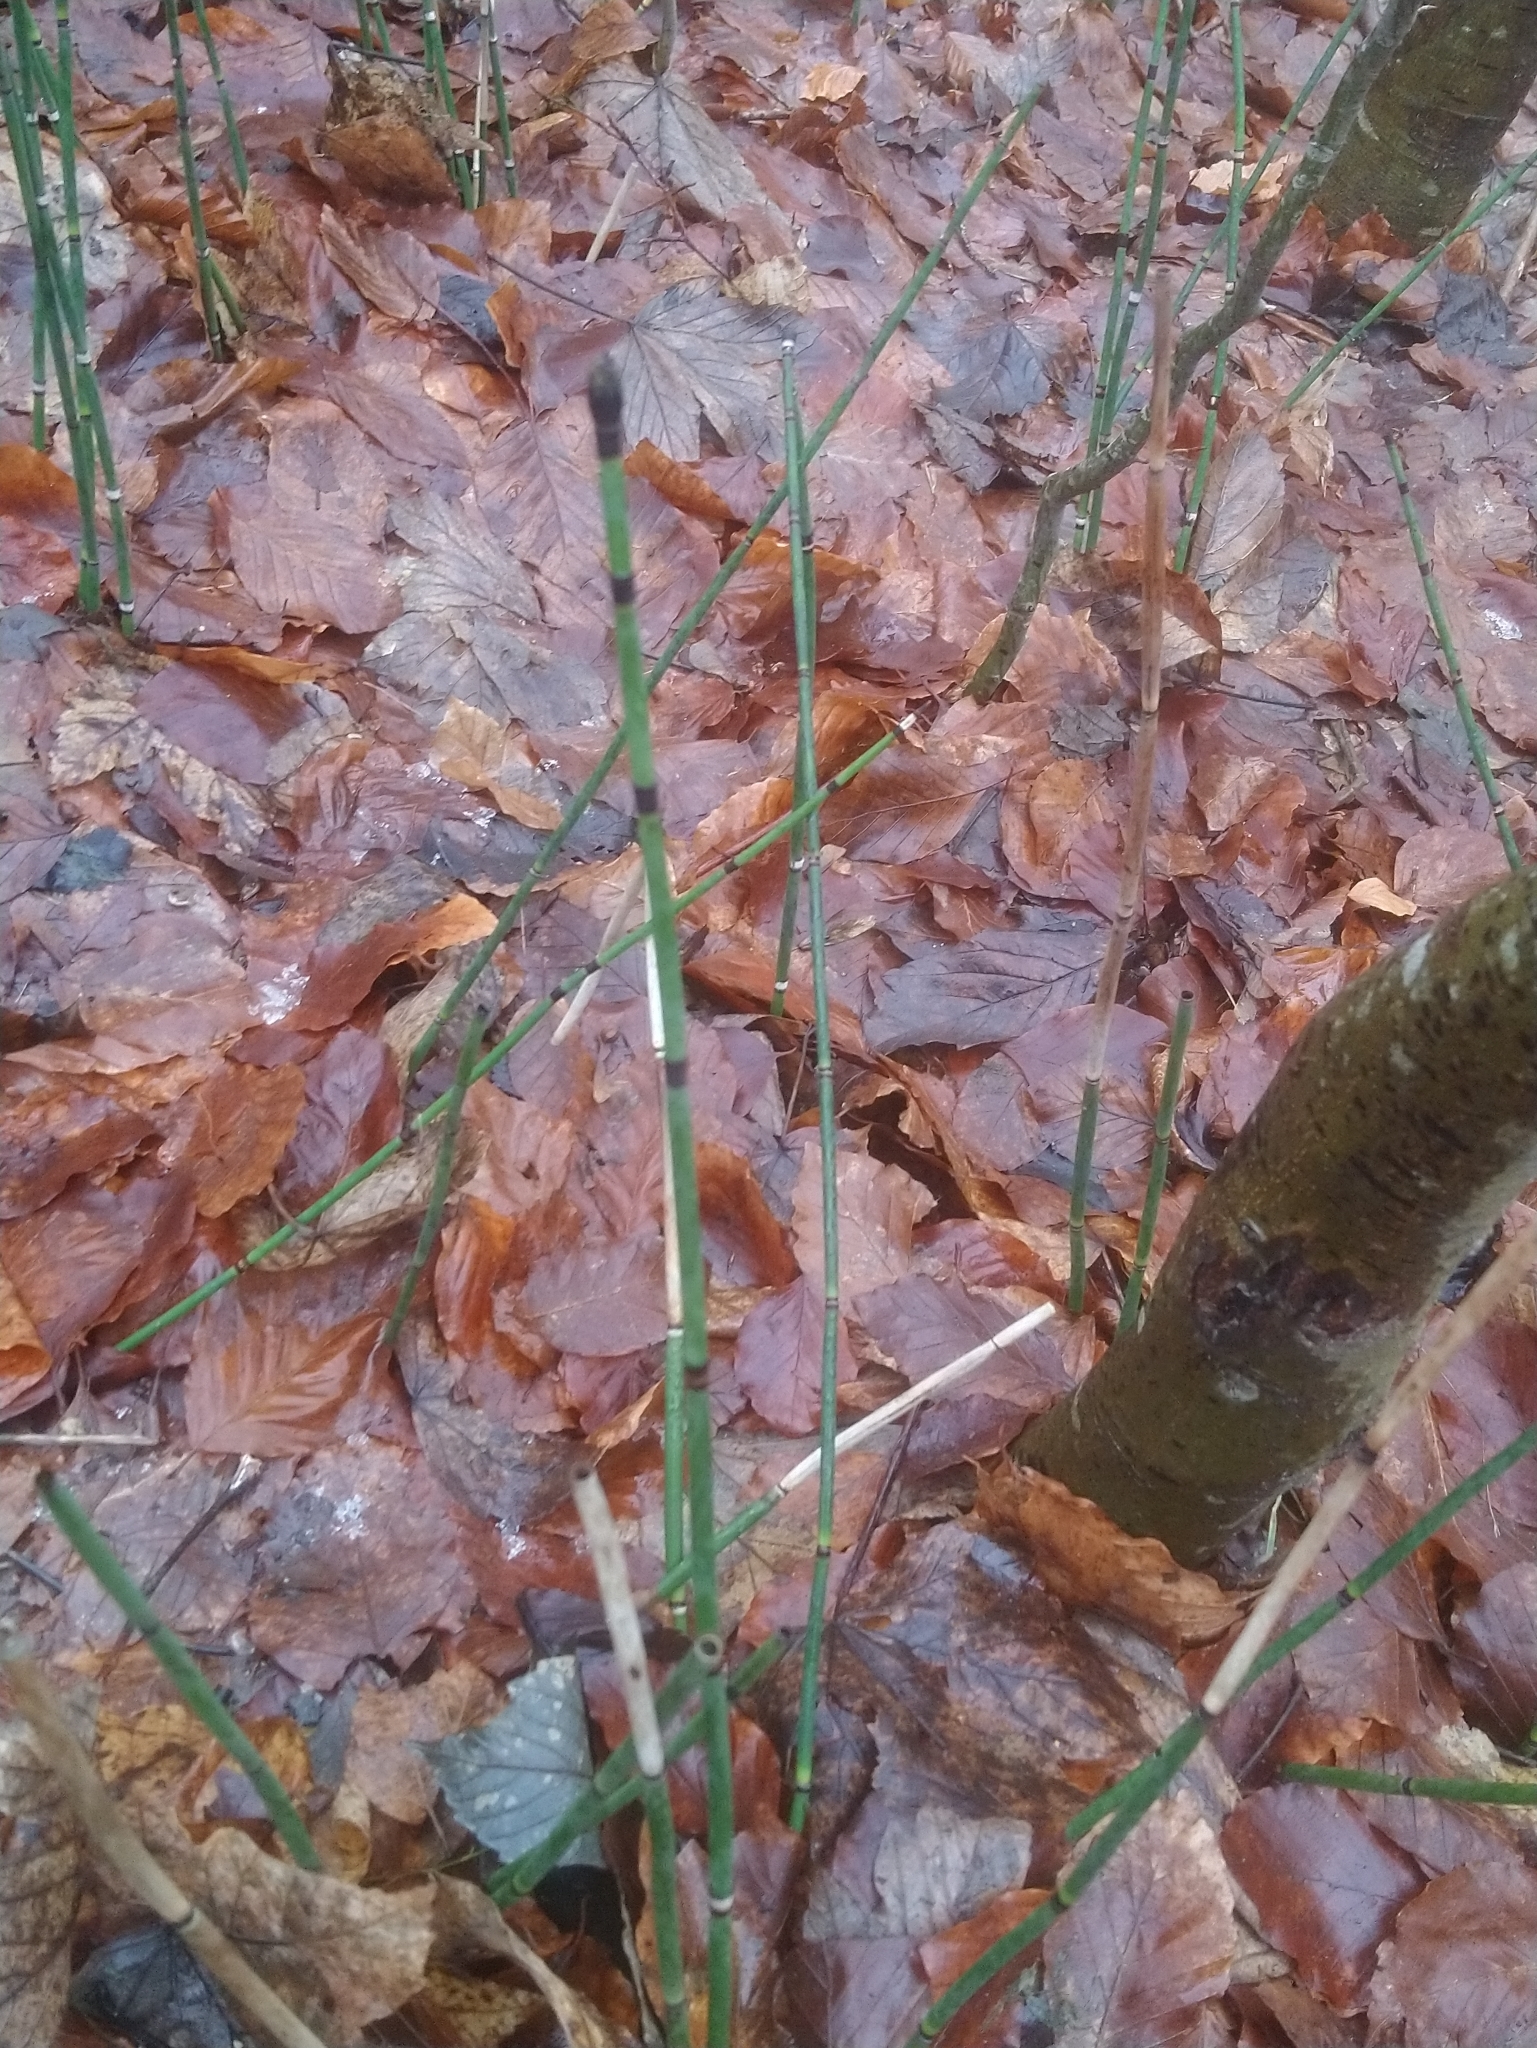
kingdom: Plantae
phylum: Tracheophyta
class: Polypodiopsida
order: Equisetales
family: Equisetaceae
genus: Equisetum
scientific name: Equisetum hyemale
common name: Rough horsetail
